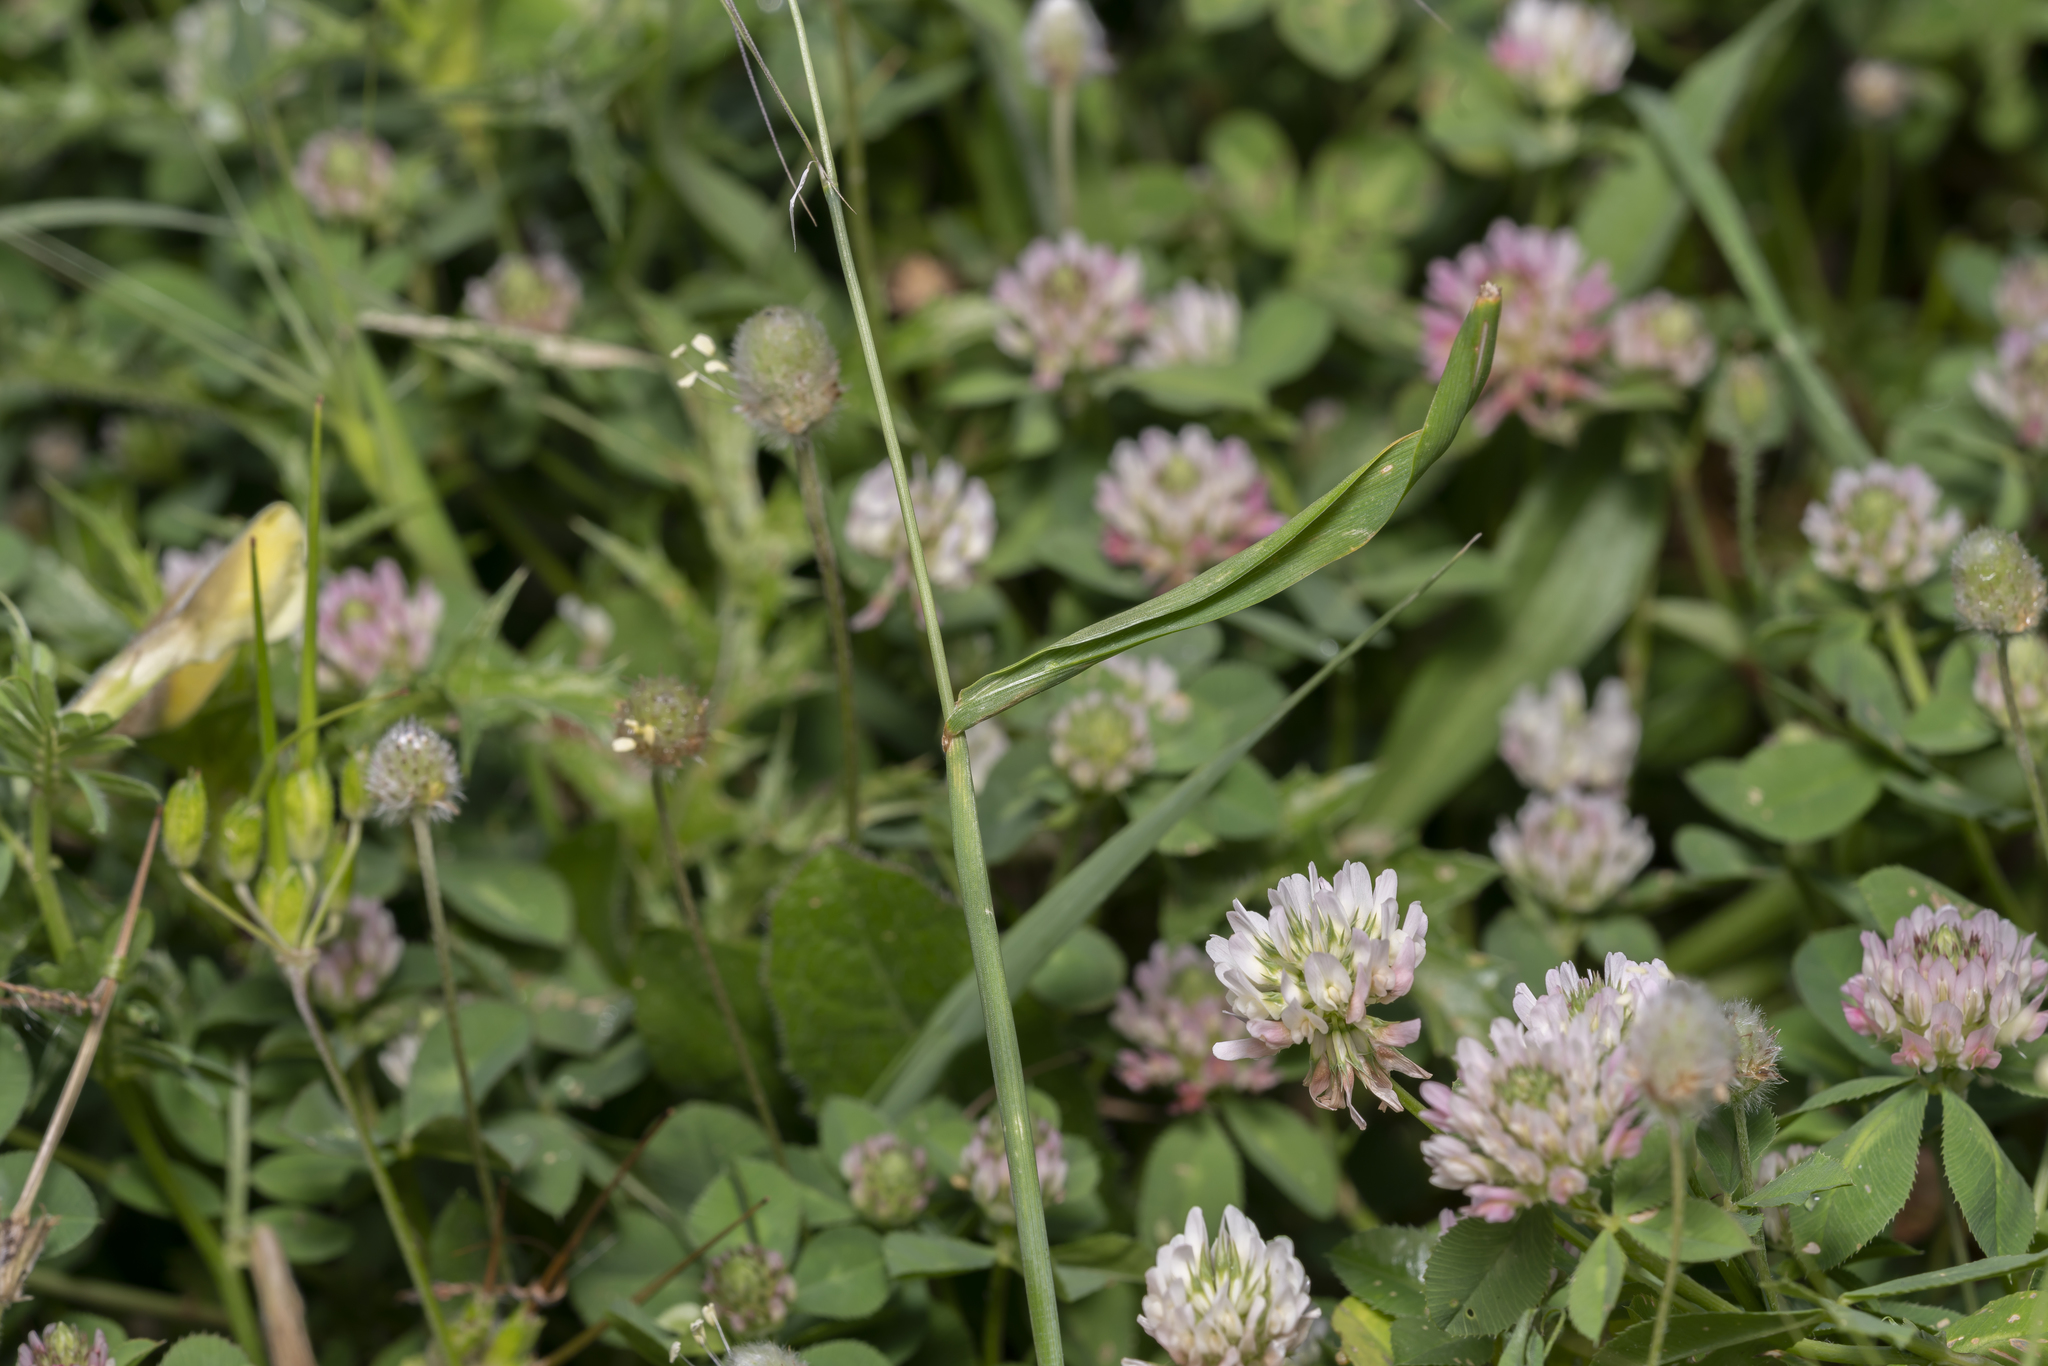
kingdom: Plantae
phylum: Tracheophyta
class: Liliopsida
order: Poales
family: Poaceae
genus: Avena
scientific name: Avena sterilis
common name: Animated oat
